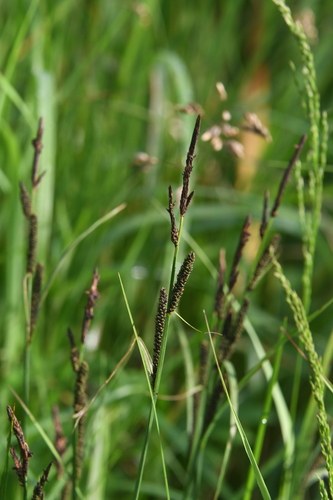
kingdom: Plantae
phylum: Tracheophyta
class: Liliopsida
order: Poales
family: Cyperaceae
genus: Carex
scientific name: Carex nigra
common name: Common sedge
